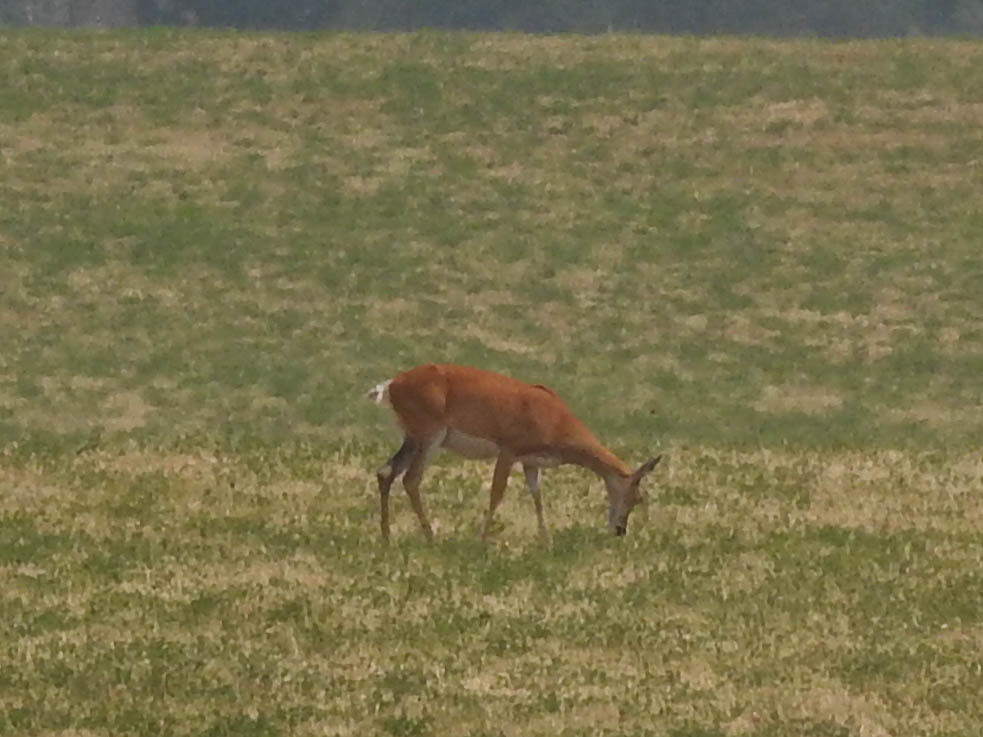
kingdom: Animalia
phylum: Chordata
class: Mammalia
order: Artiodactyla
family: Cervidae
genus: Odocoileus
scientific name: Odocoileus virginianus
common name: White-tailed deer
